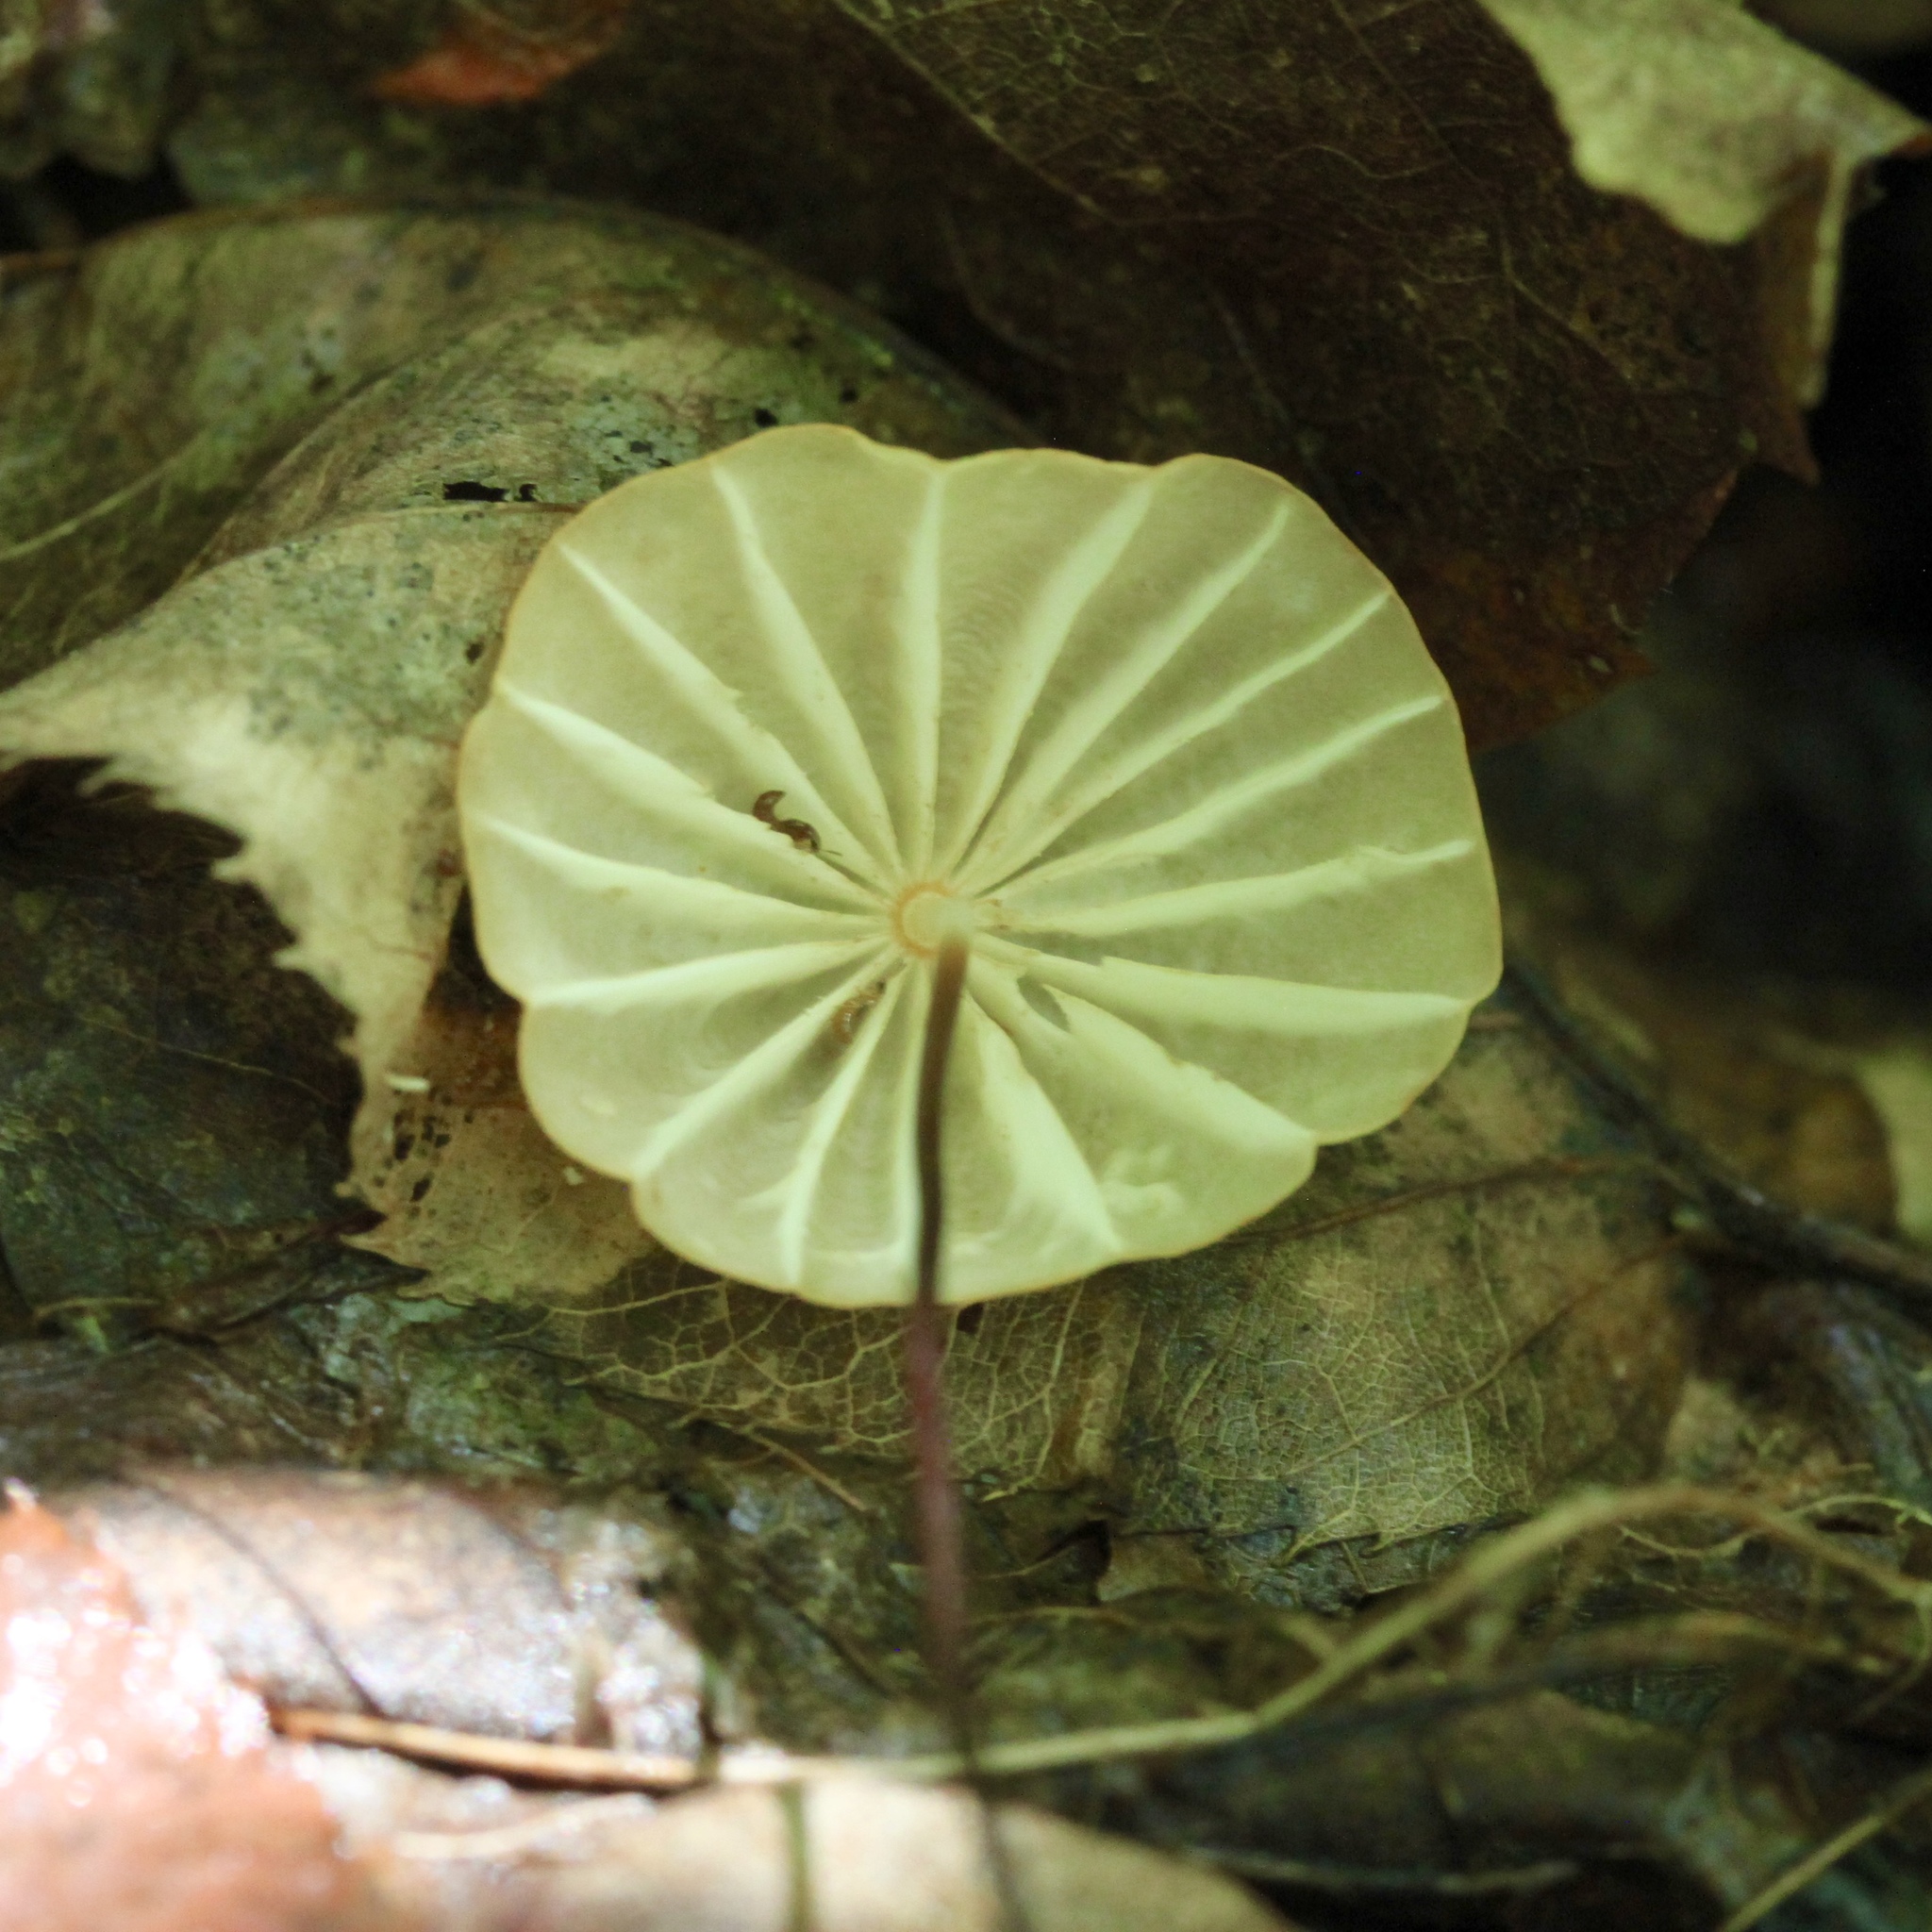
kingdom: Fungi
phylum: Basidiomycota
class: Agaricomycetes
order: Agaricales
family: Marasmiaceae
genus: Marasmius
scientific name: Marasmius siccus
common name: Orange pinwheel
